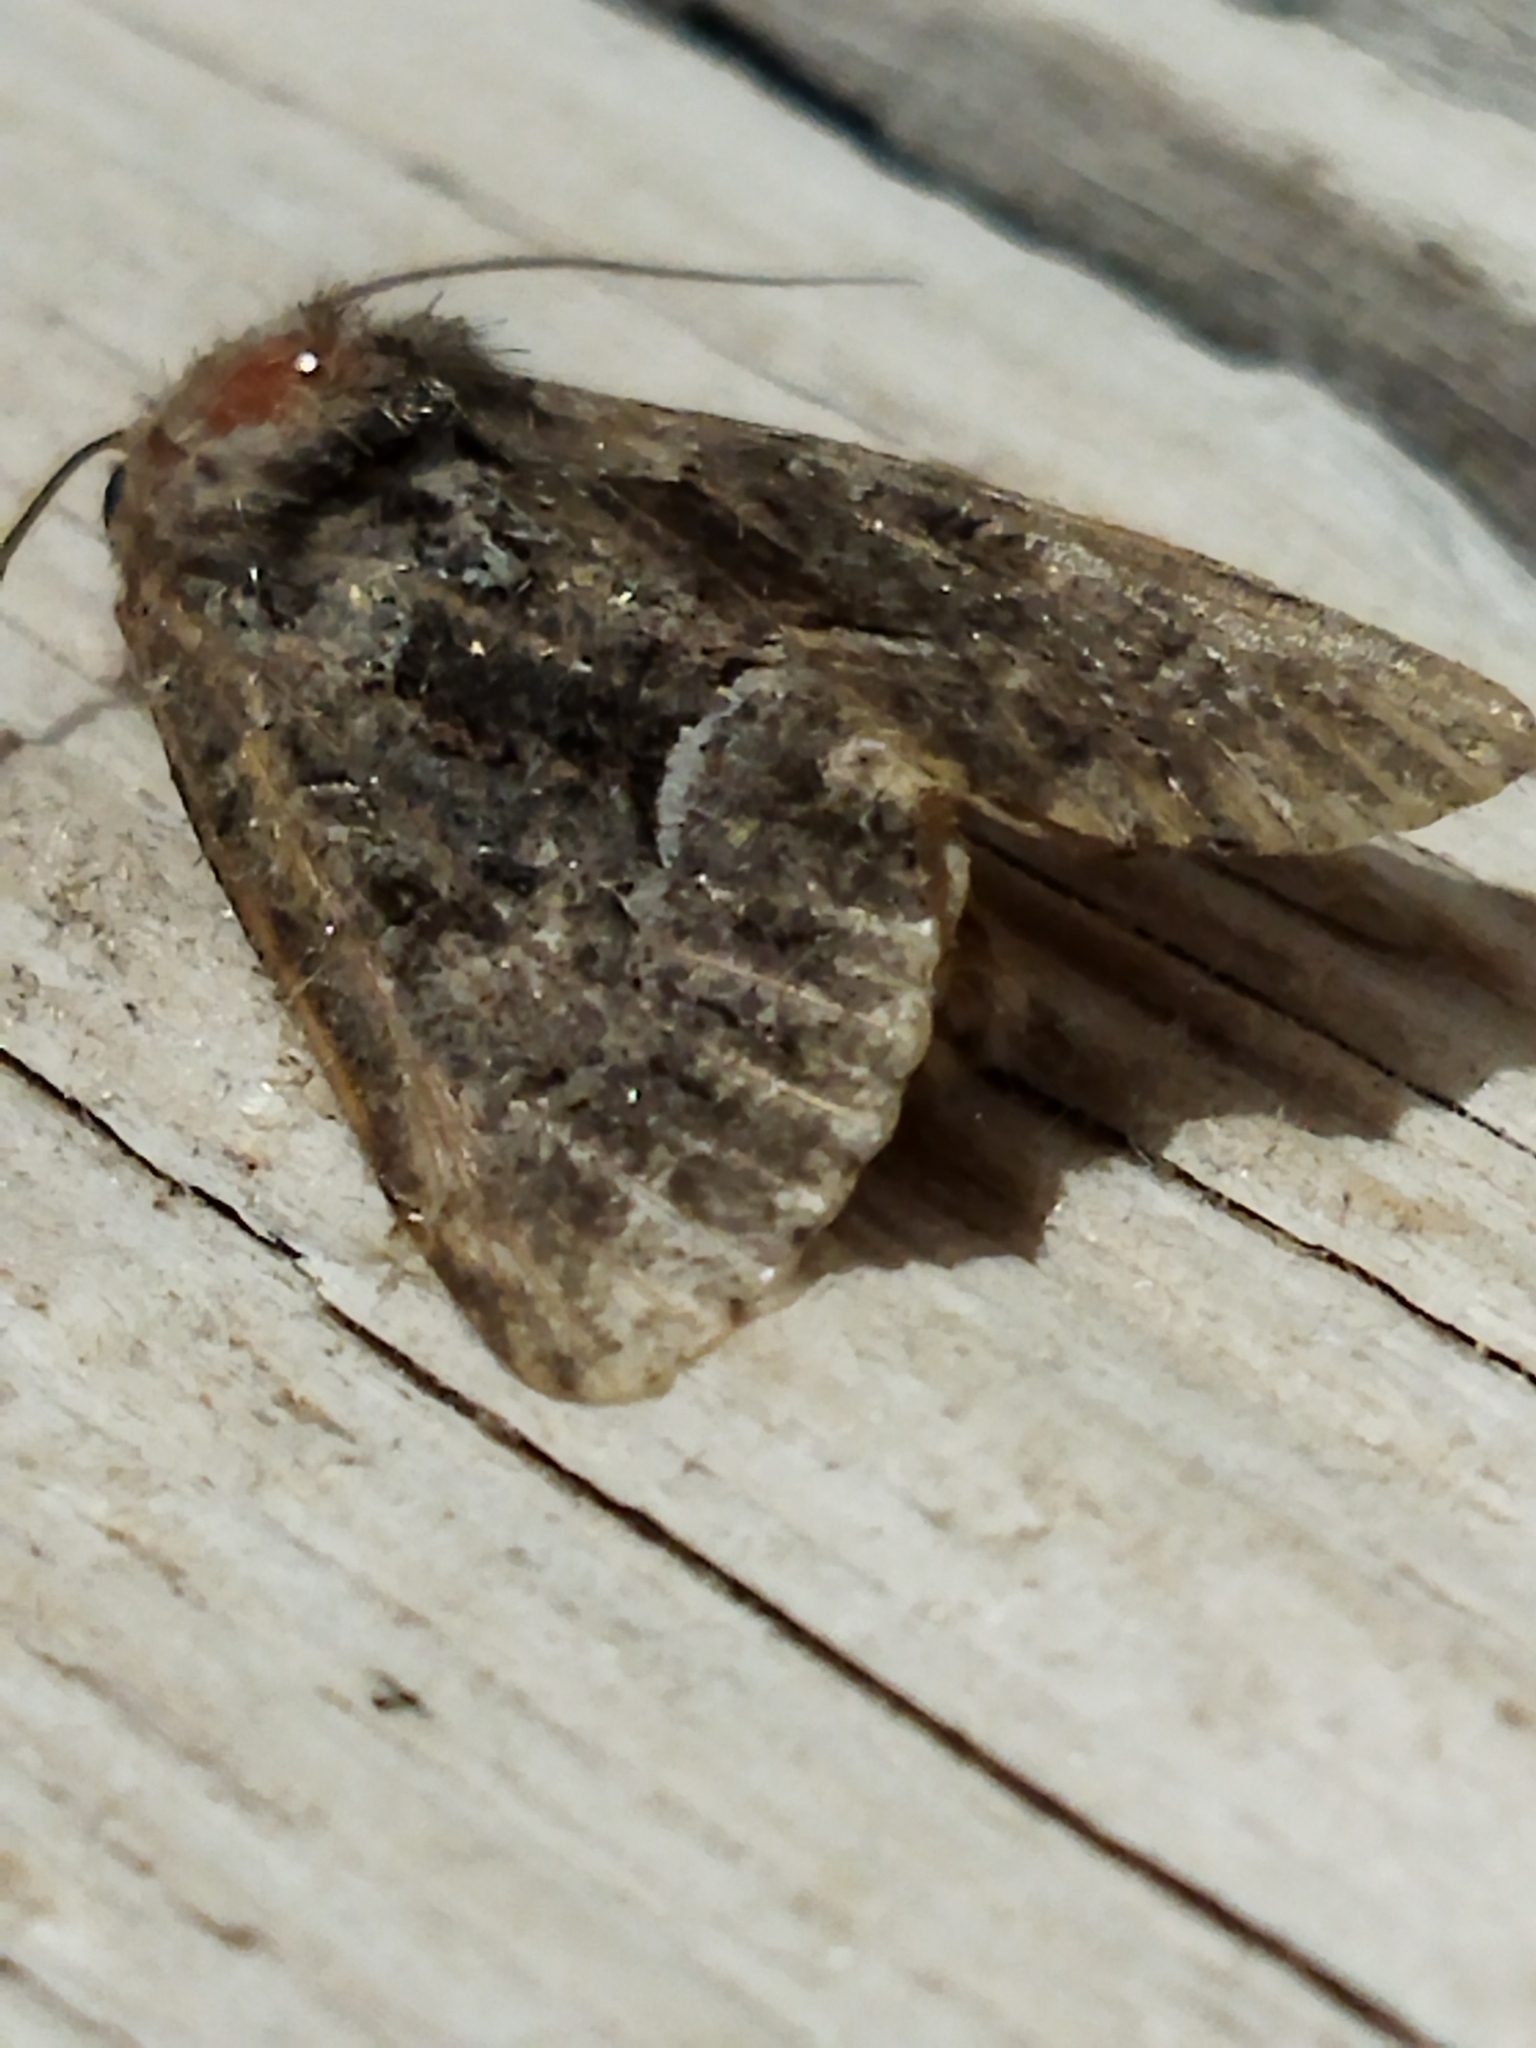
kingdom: Animalia
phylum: Arthropoda
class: Insecta
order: Lepidoptera
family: Noctuidae
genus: Thalpophila
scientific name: Thalpophila matura
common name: Straw underwing
